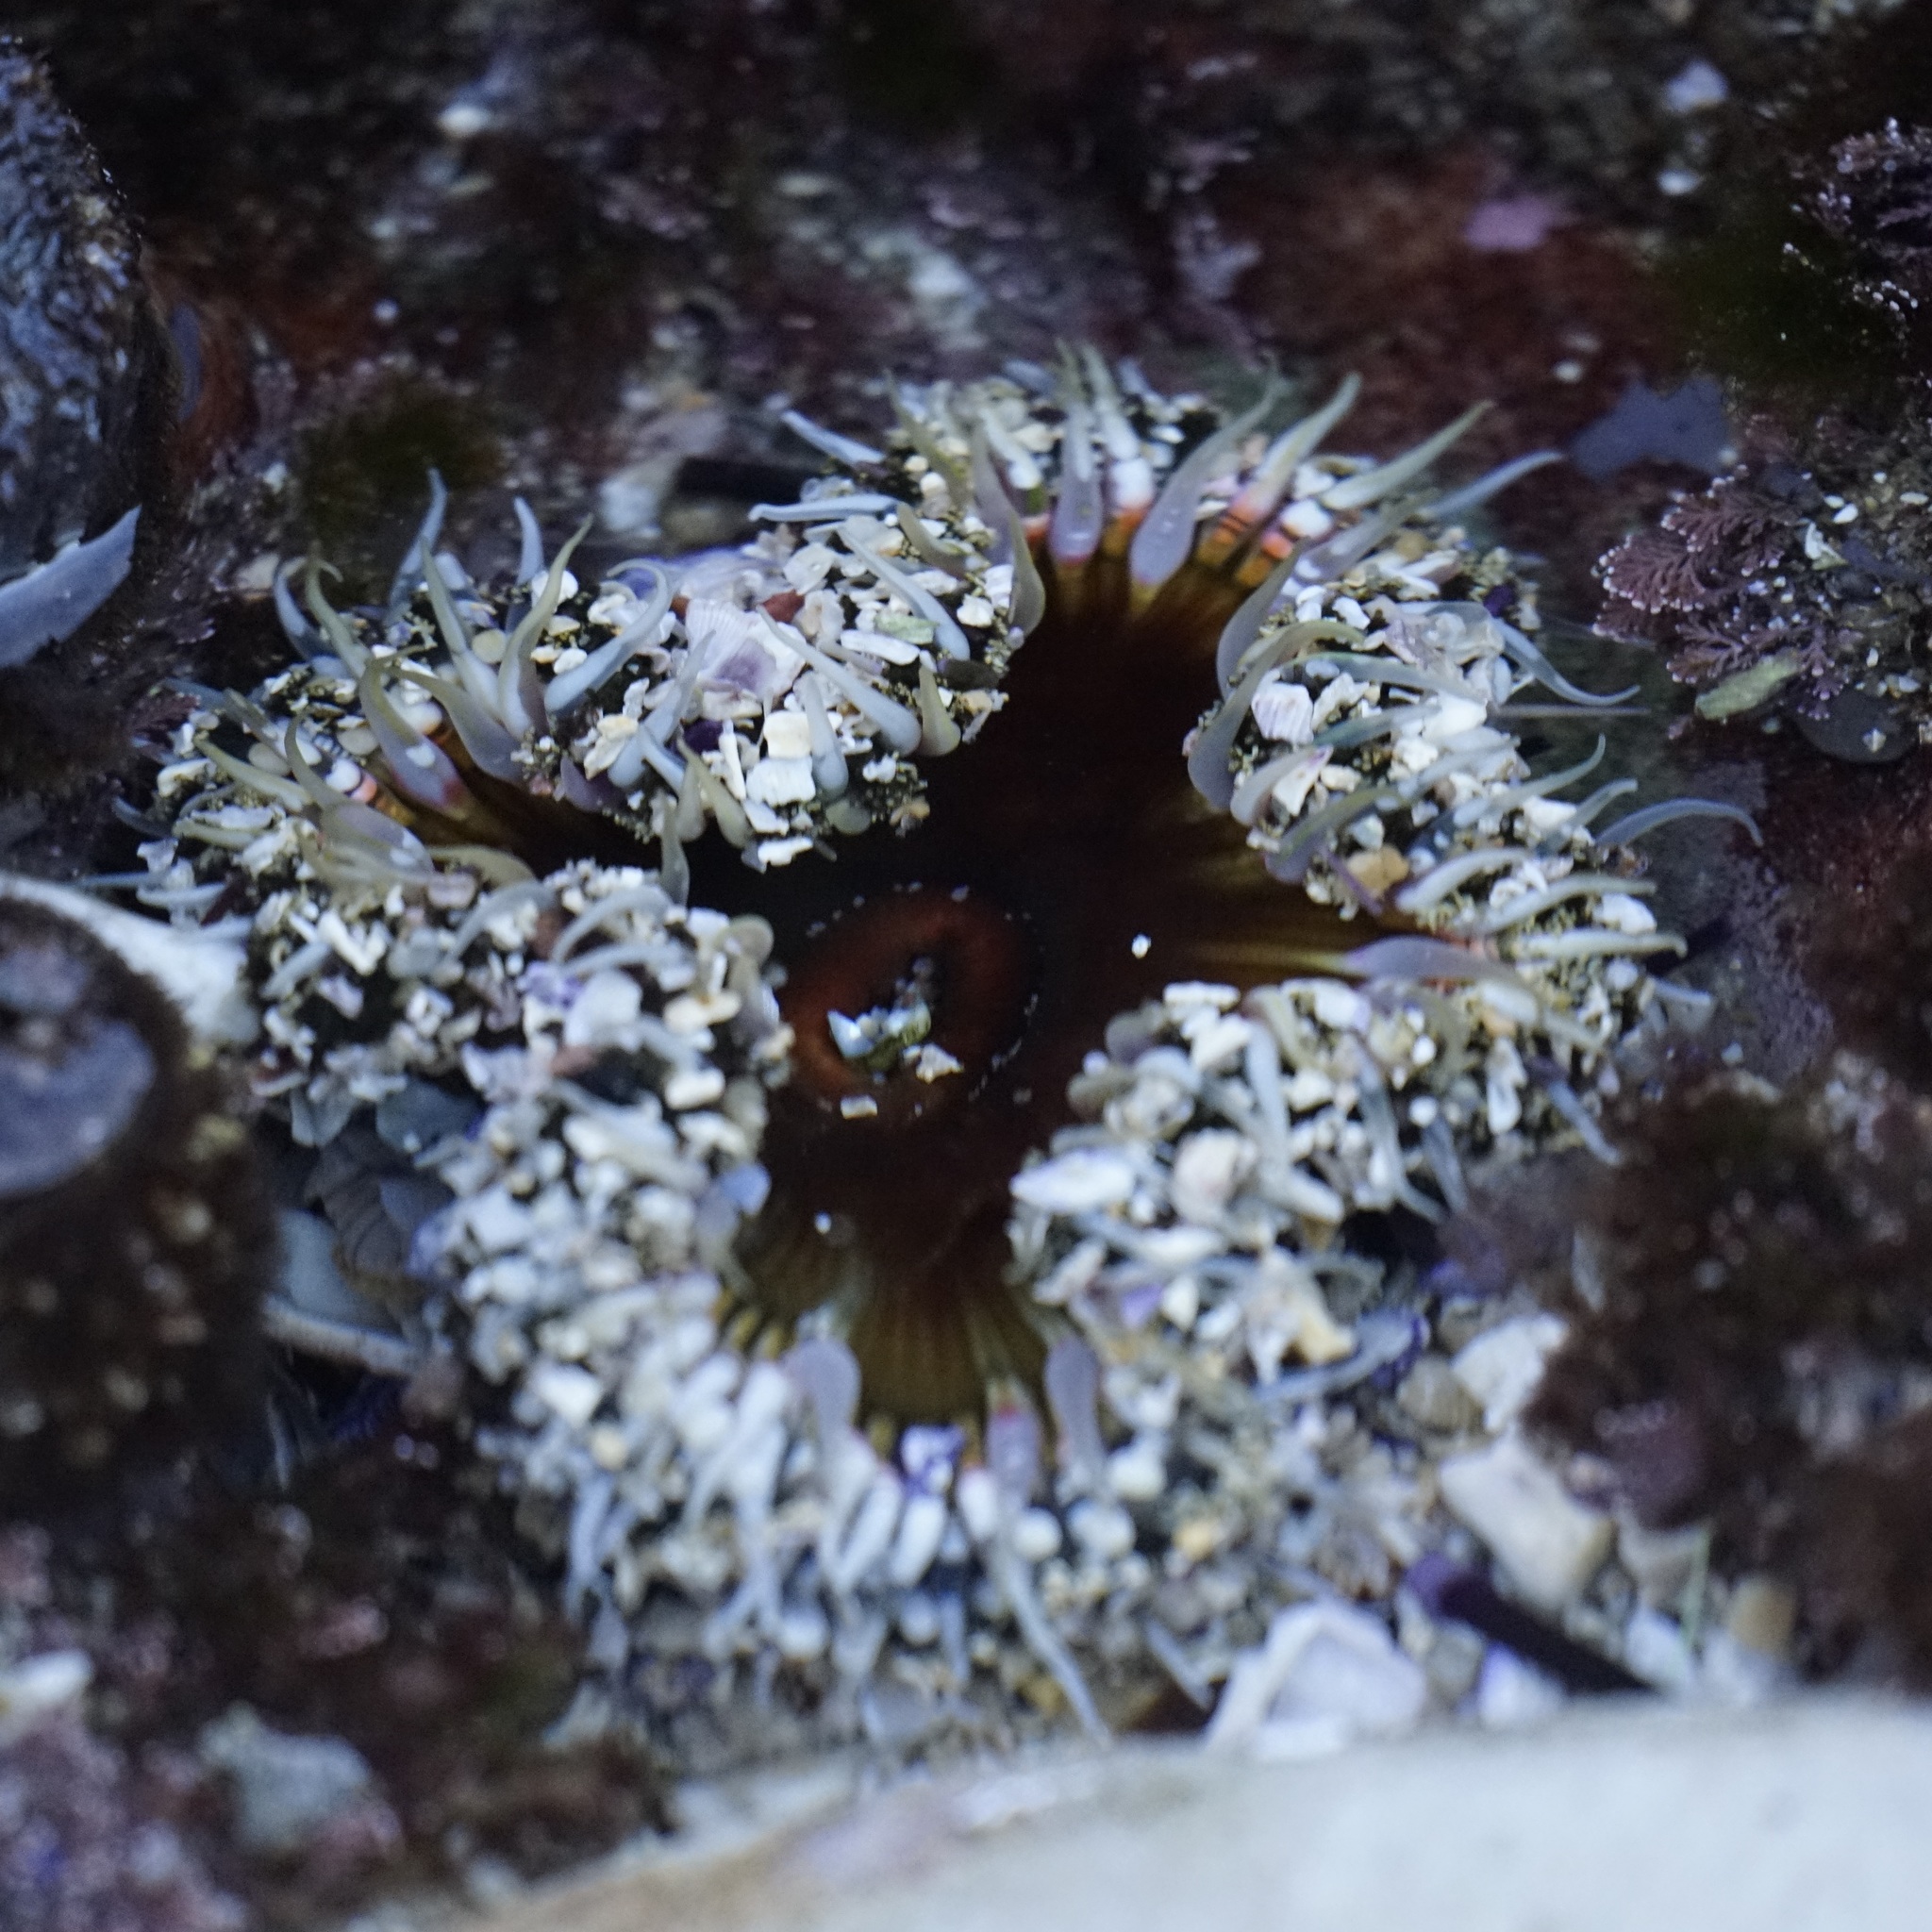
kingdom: Animalia
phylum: Cnidaria
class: Anthozoa
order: Actiniaria
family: Actiniidae
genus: Oulactis
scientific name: Oulactis muscosa
